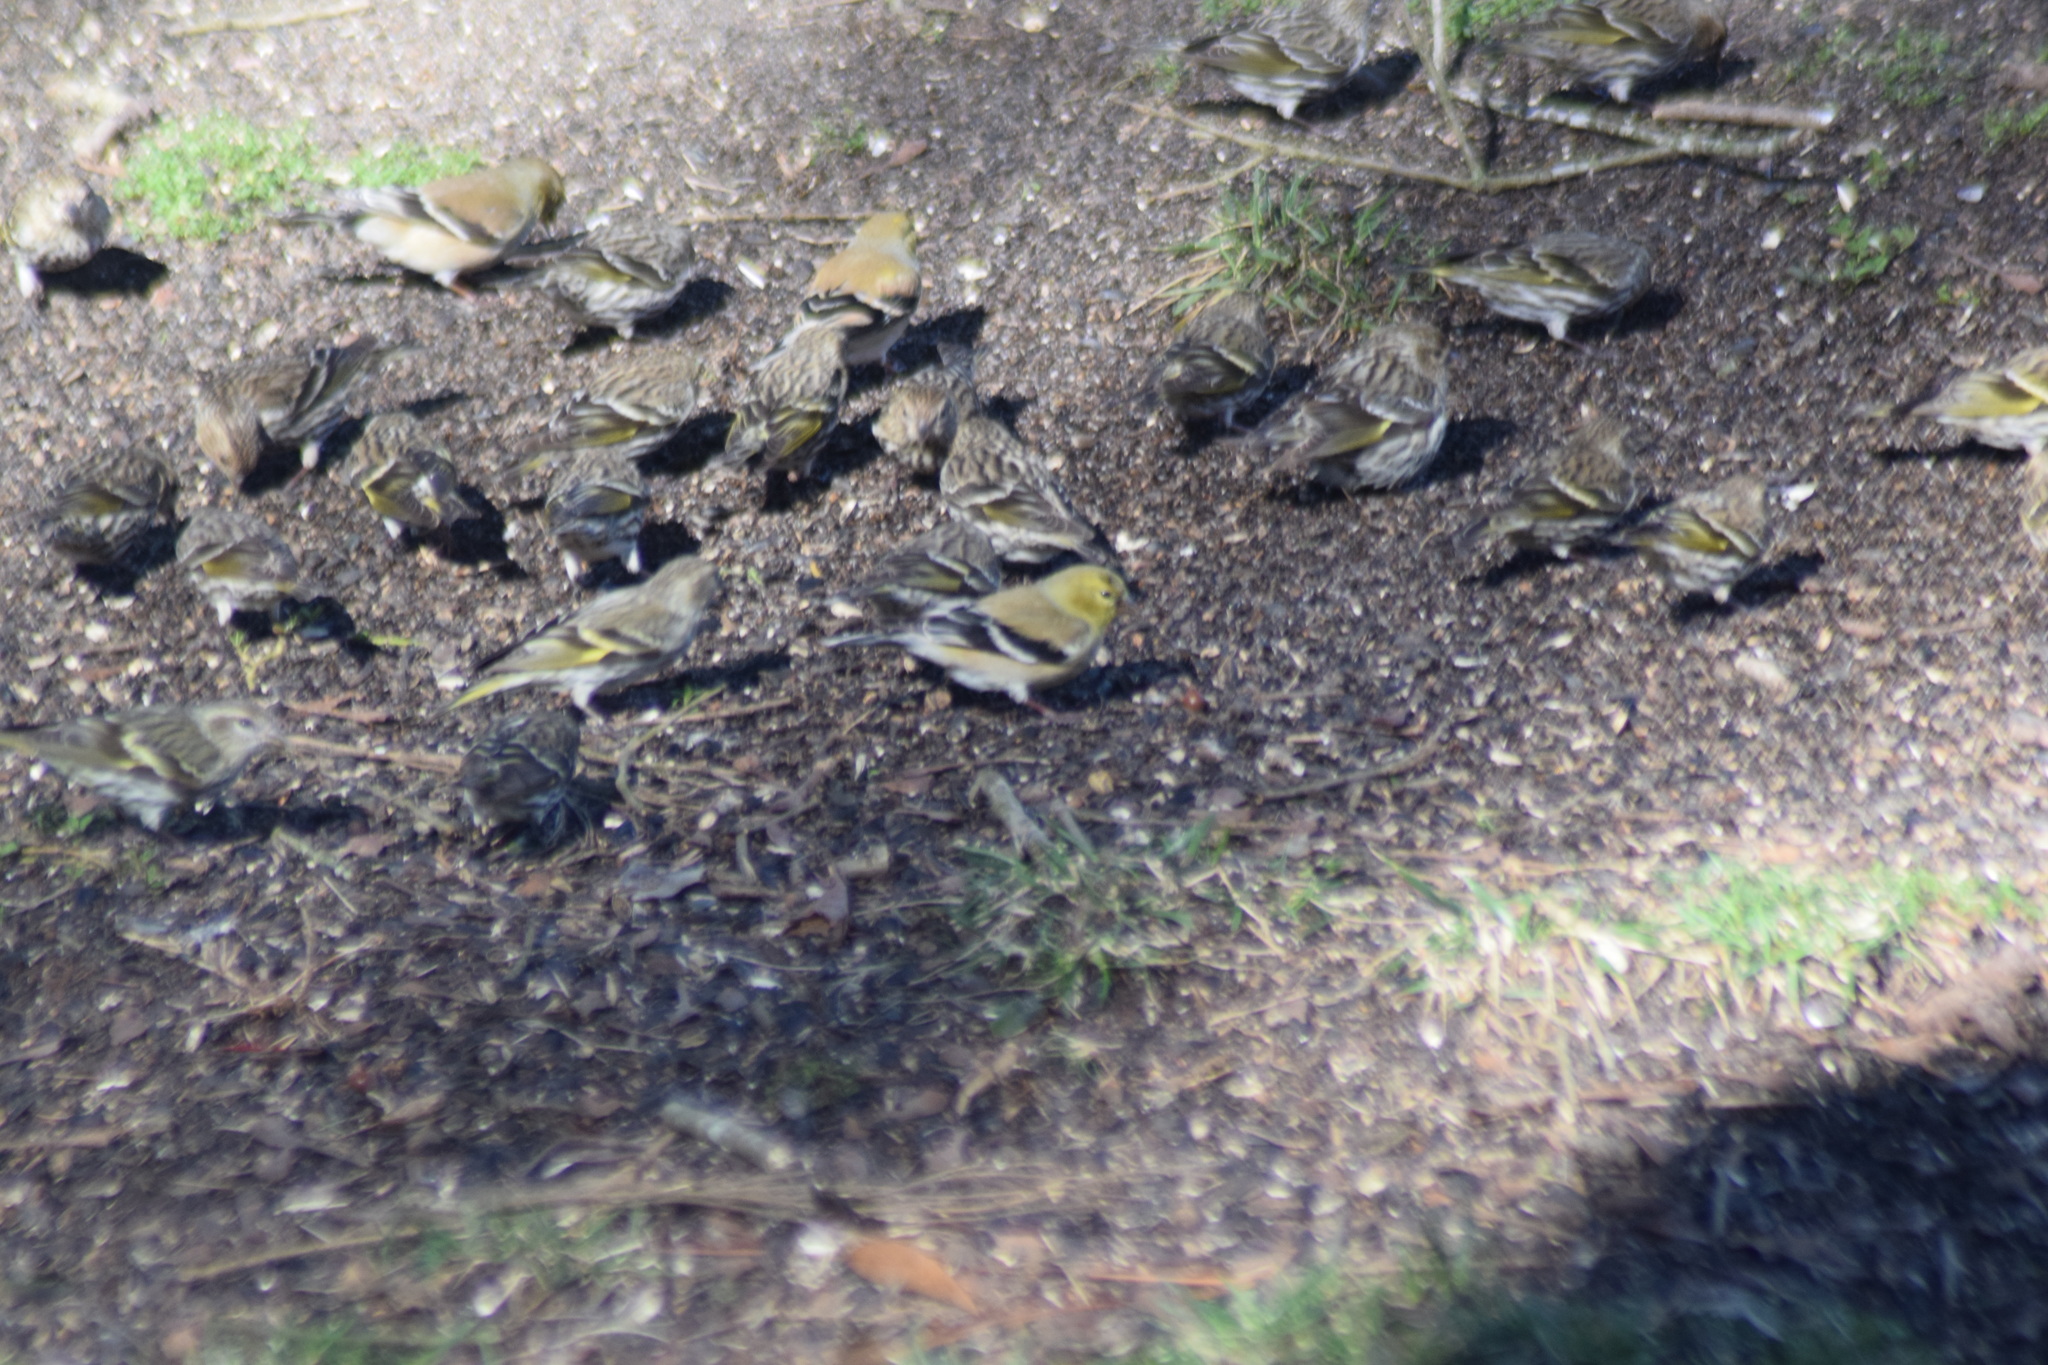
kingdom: Animalia
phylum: Chordata
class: Aves
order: Passeriformes
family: Fringillidae
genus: Spinus
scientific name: Spinus tristis
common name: American goldfinch
